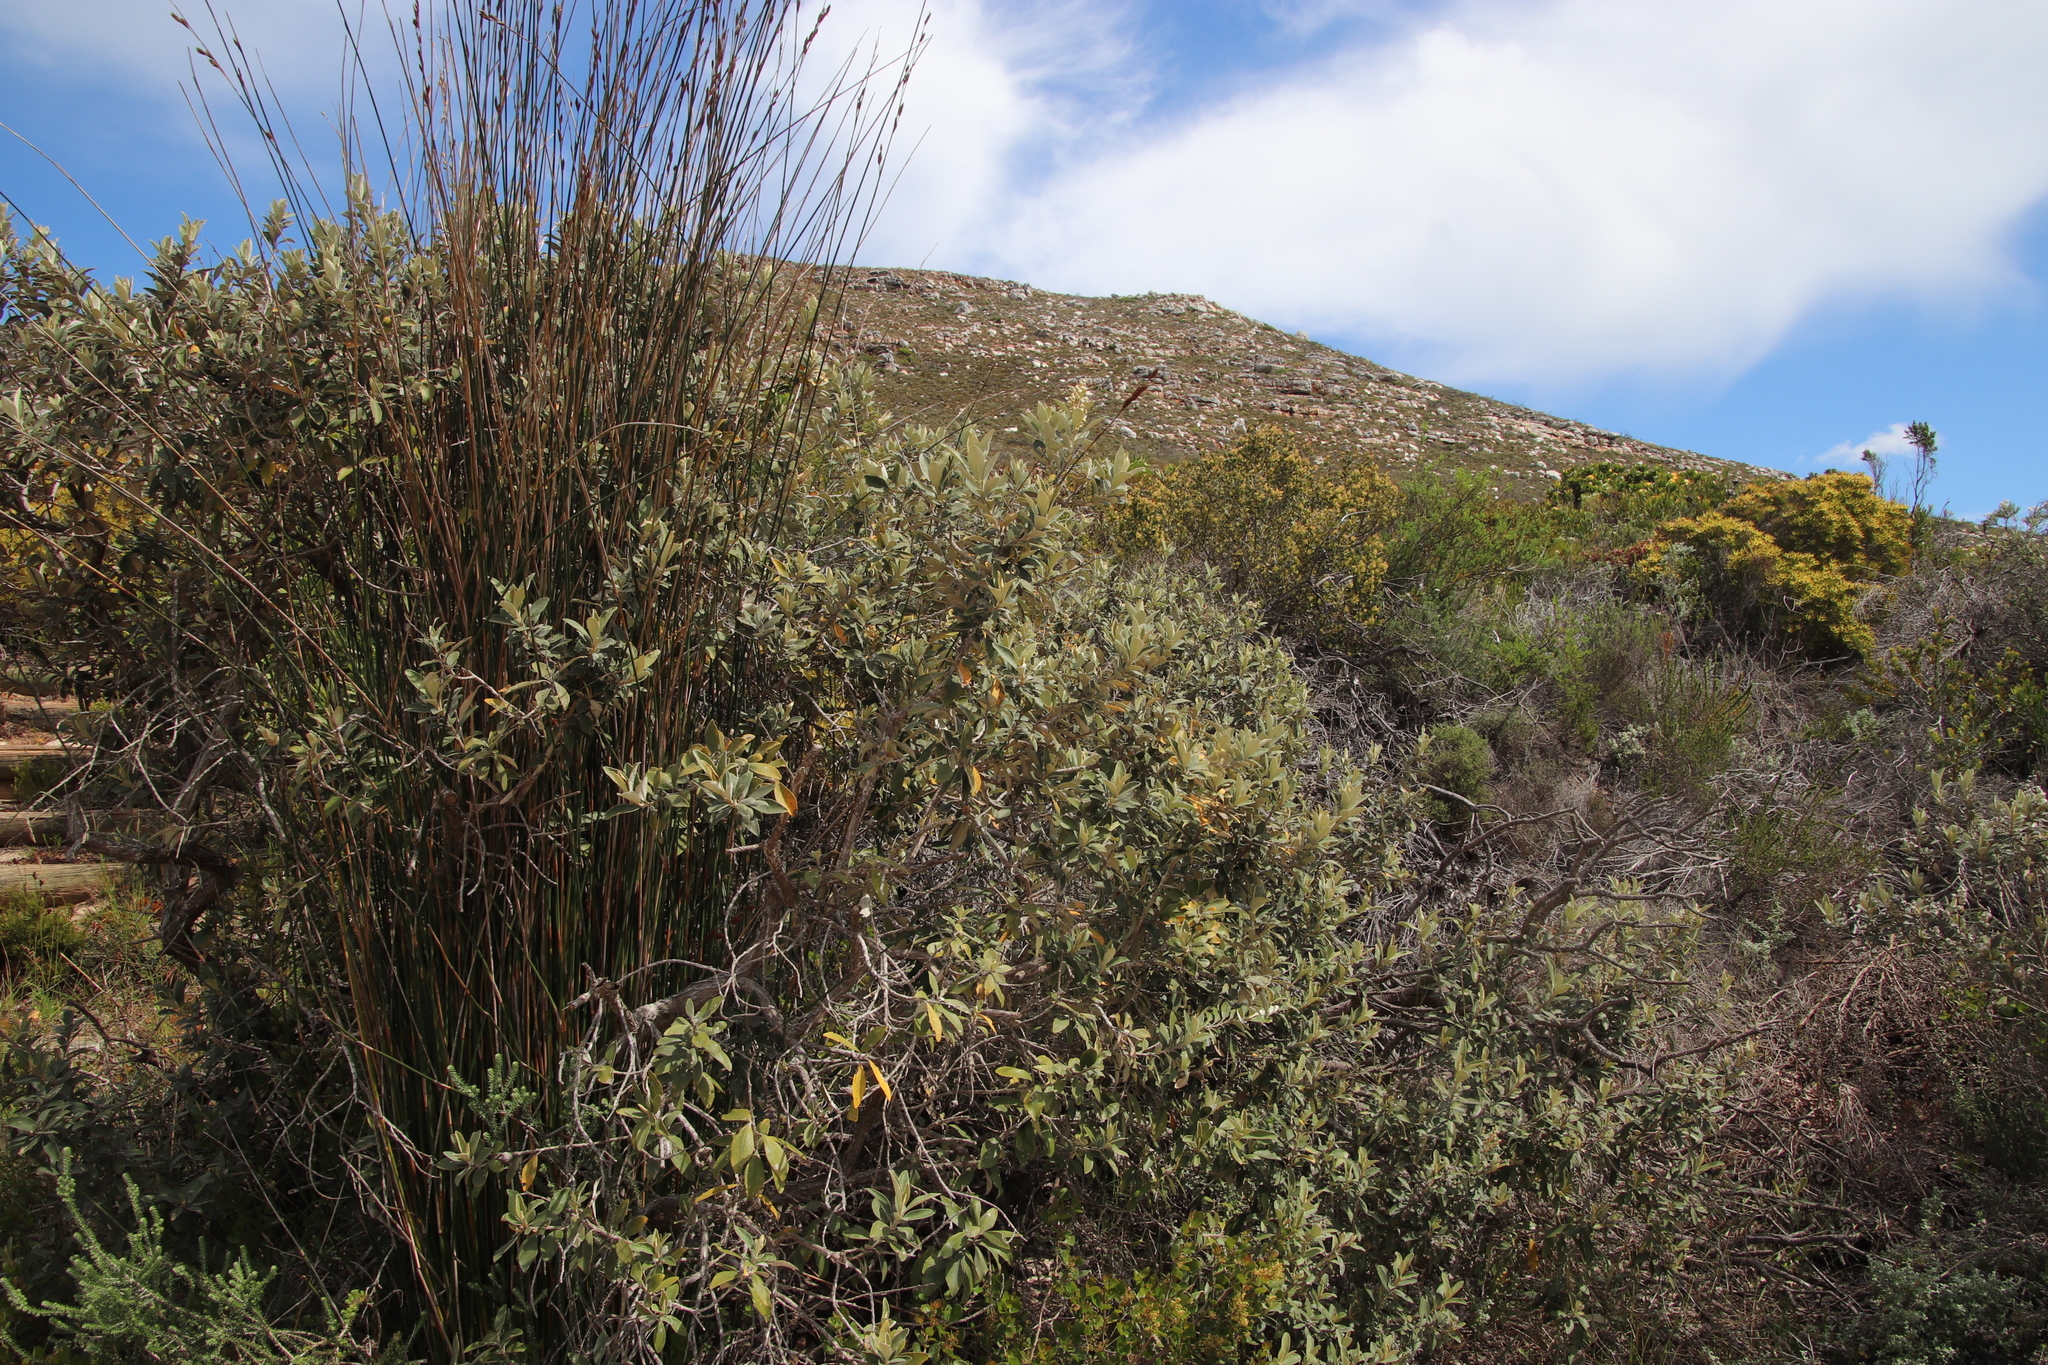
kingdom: Plantae
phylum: Tracheophyta
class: Magnoliopsida
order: Asterales
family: Asteraceae
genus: Tarchonanthus
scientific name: Tarchonanthus littoralis
